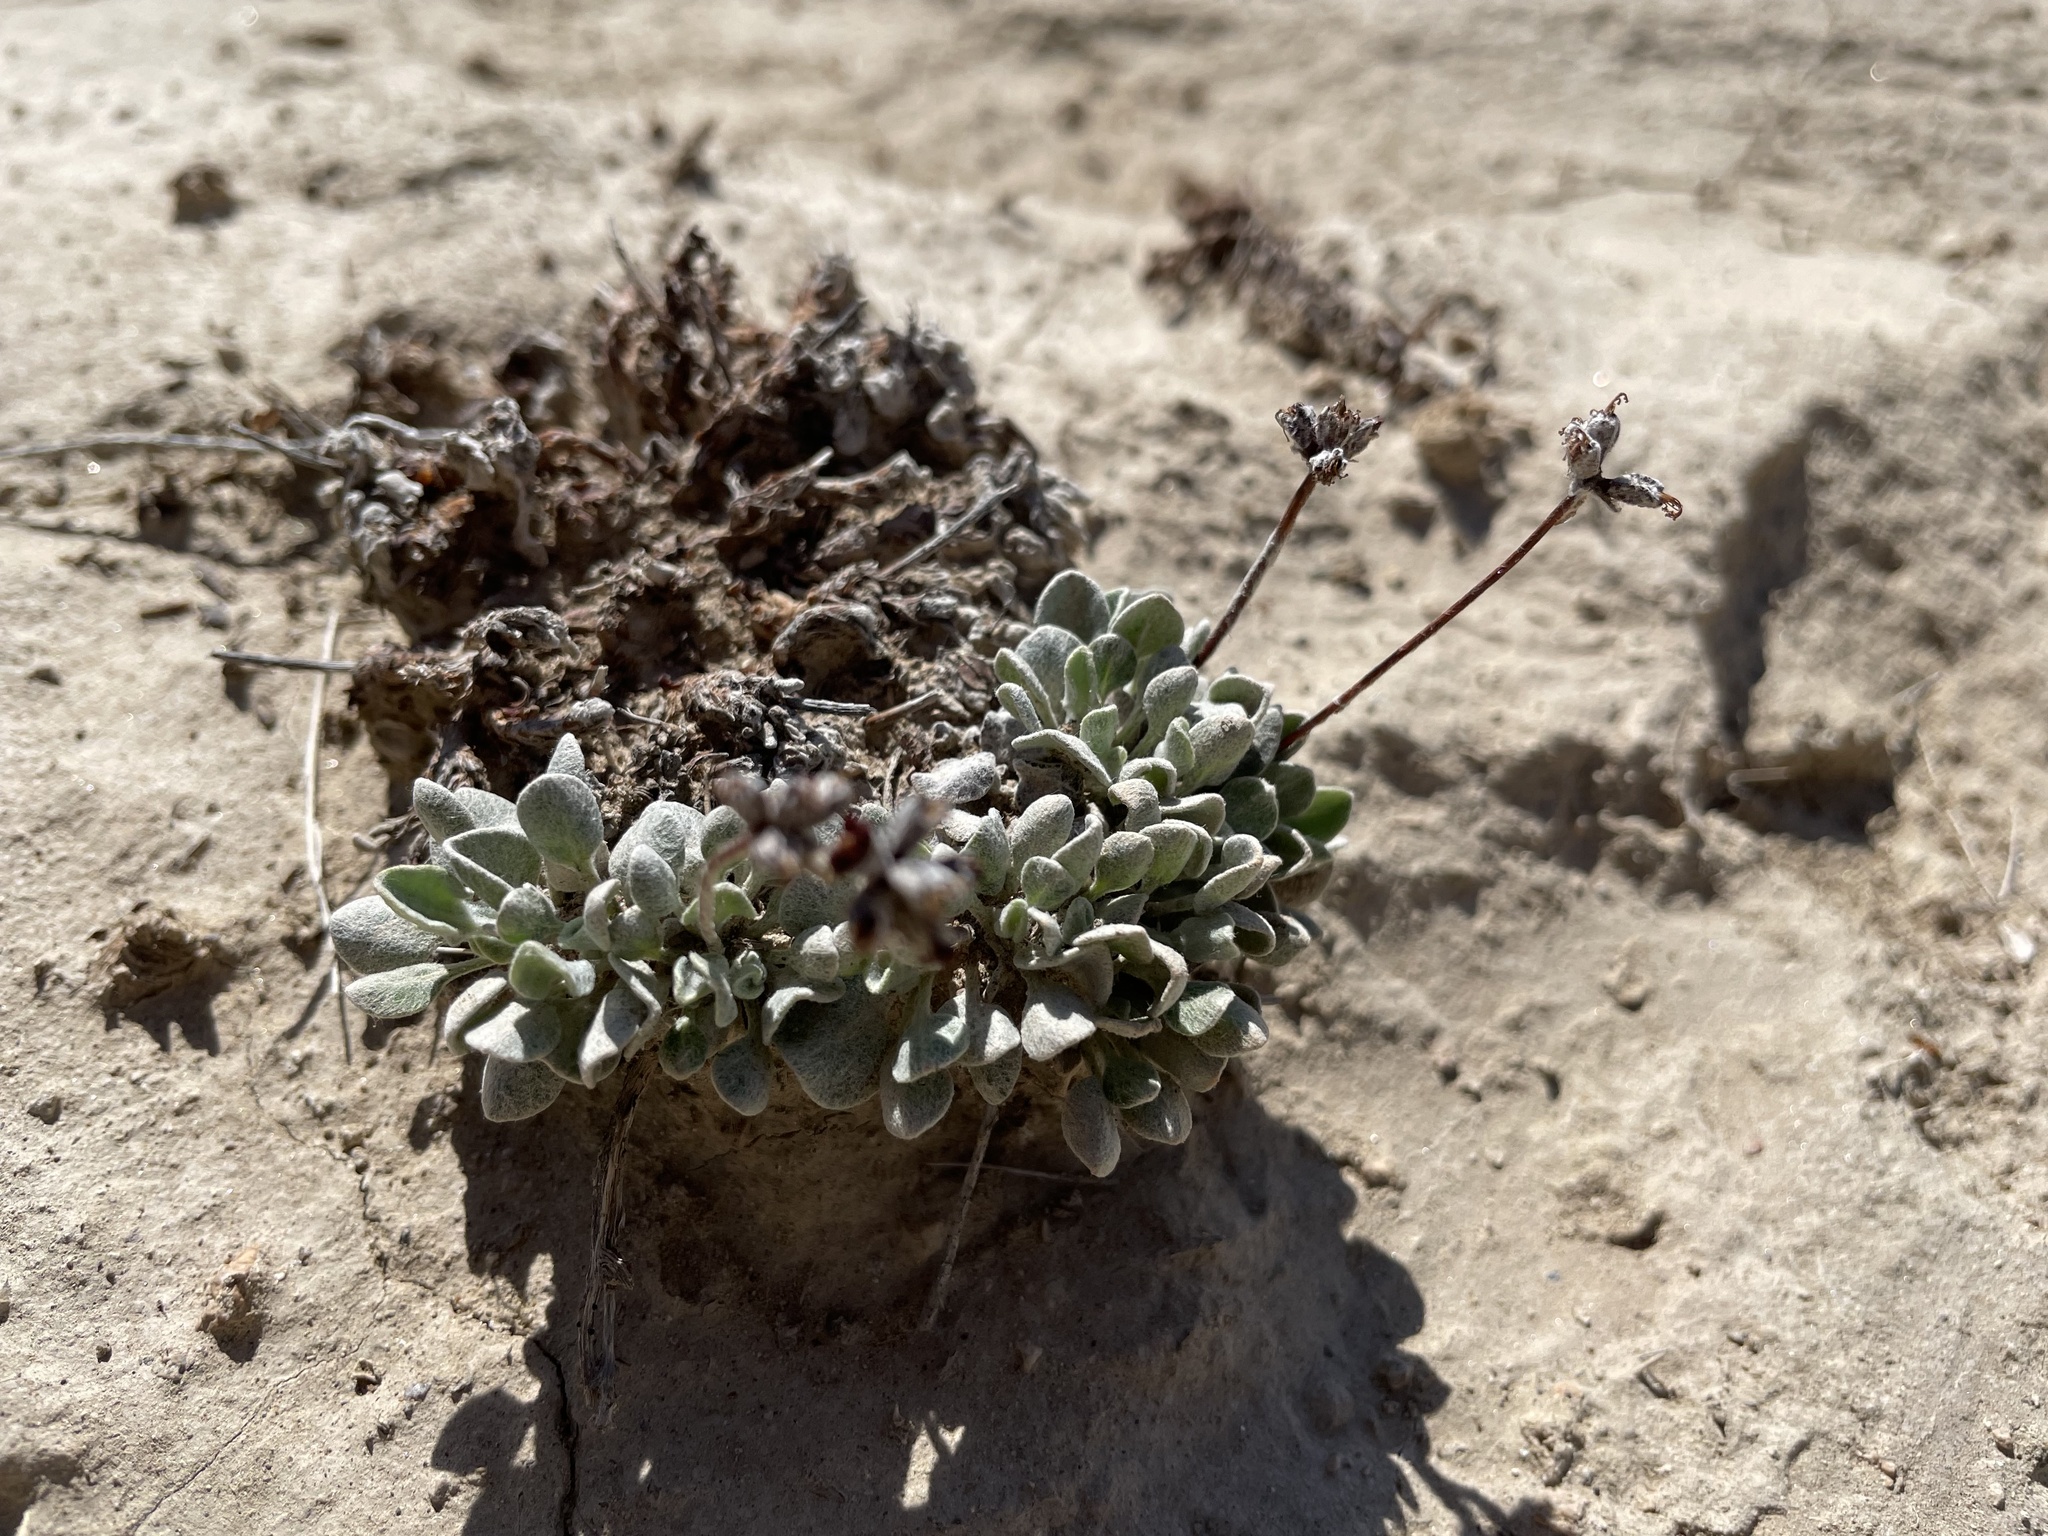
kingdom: Plantae
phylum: Tracheophyta
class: Magnoliopsida
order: Caryophyllales
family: Polygonaceae
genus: Eriogonum
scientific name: Eriogonum ovalifolium
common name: Cushion buckwheat
